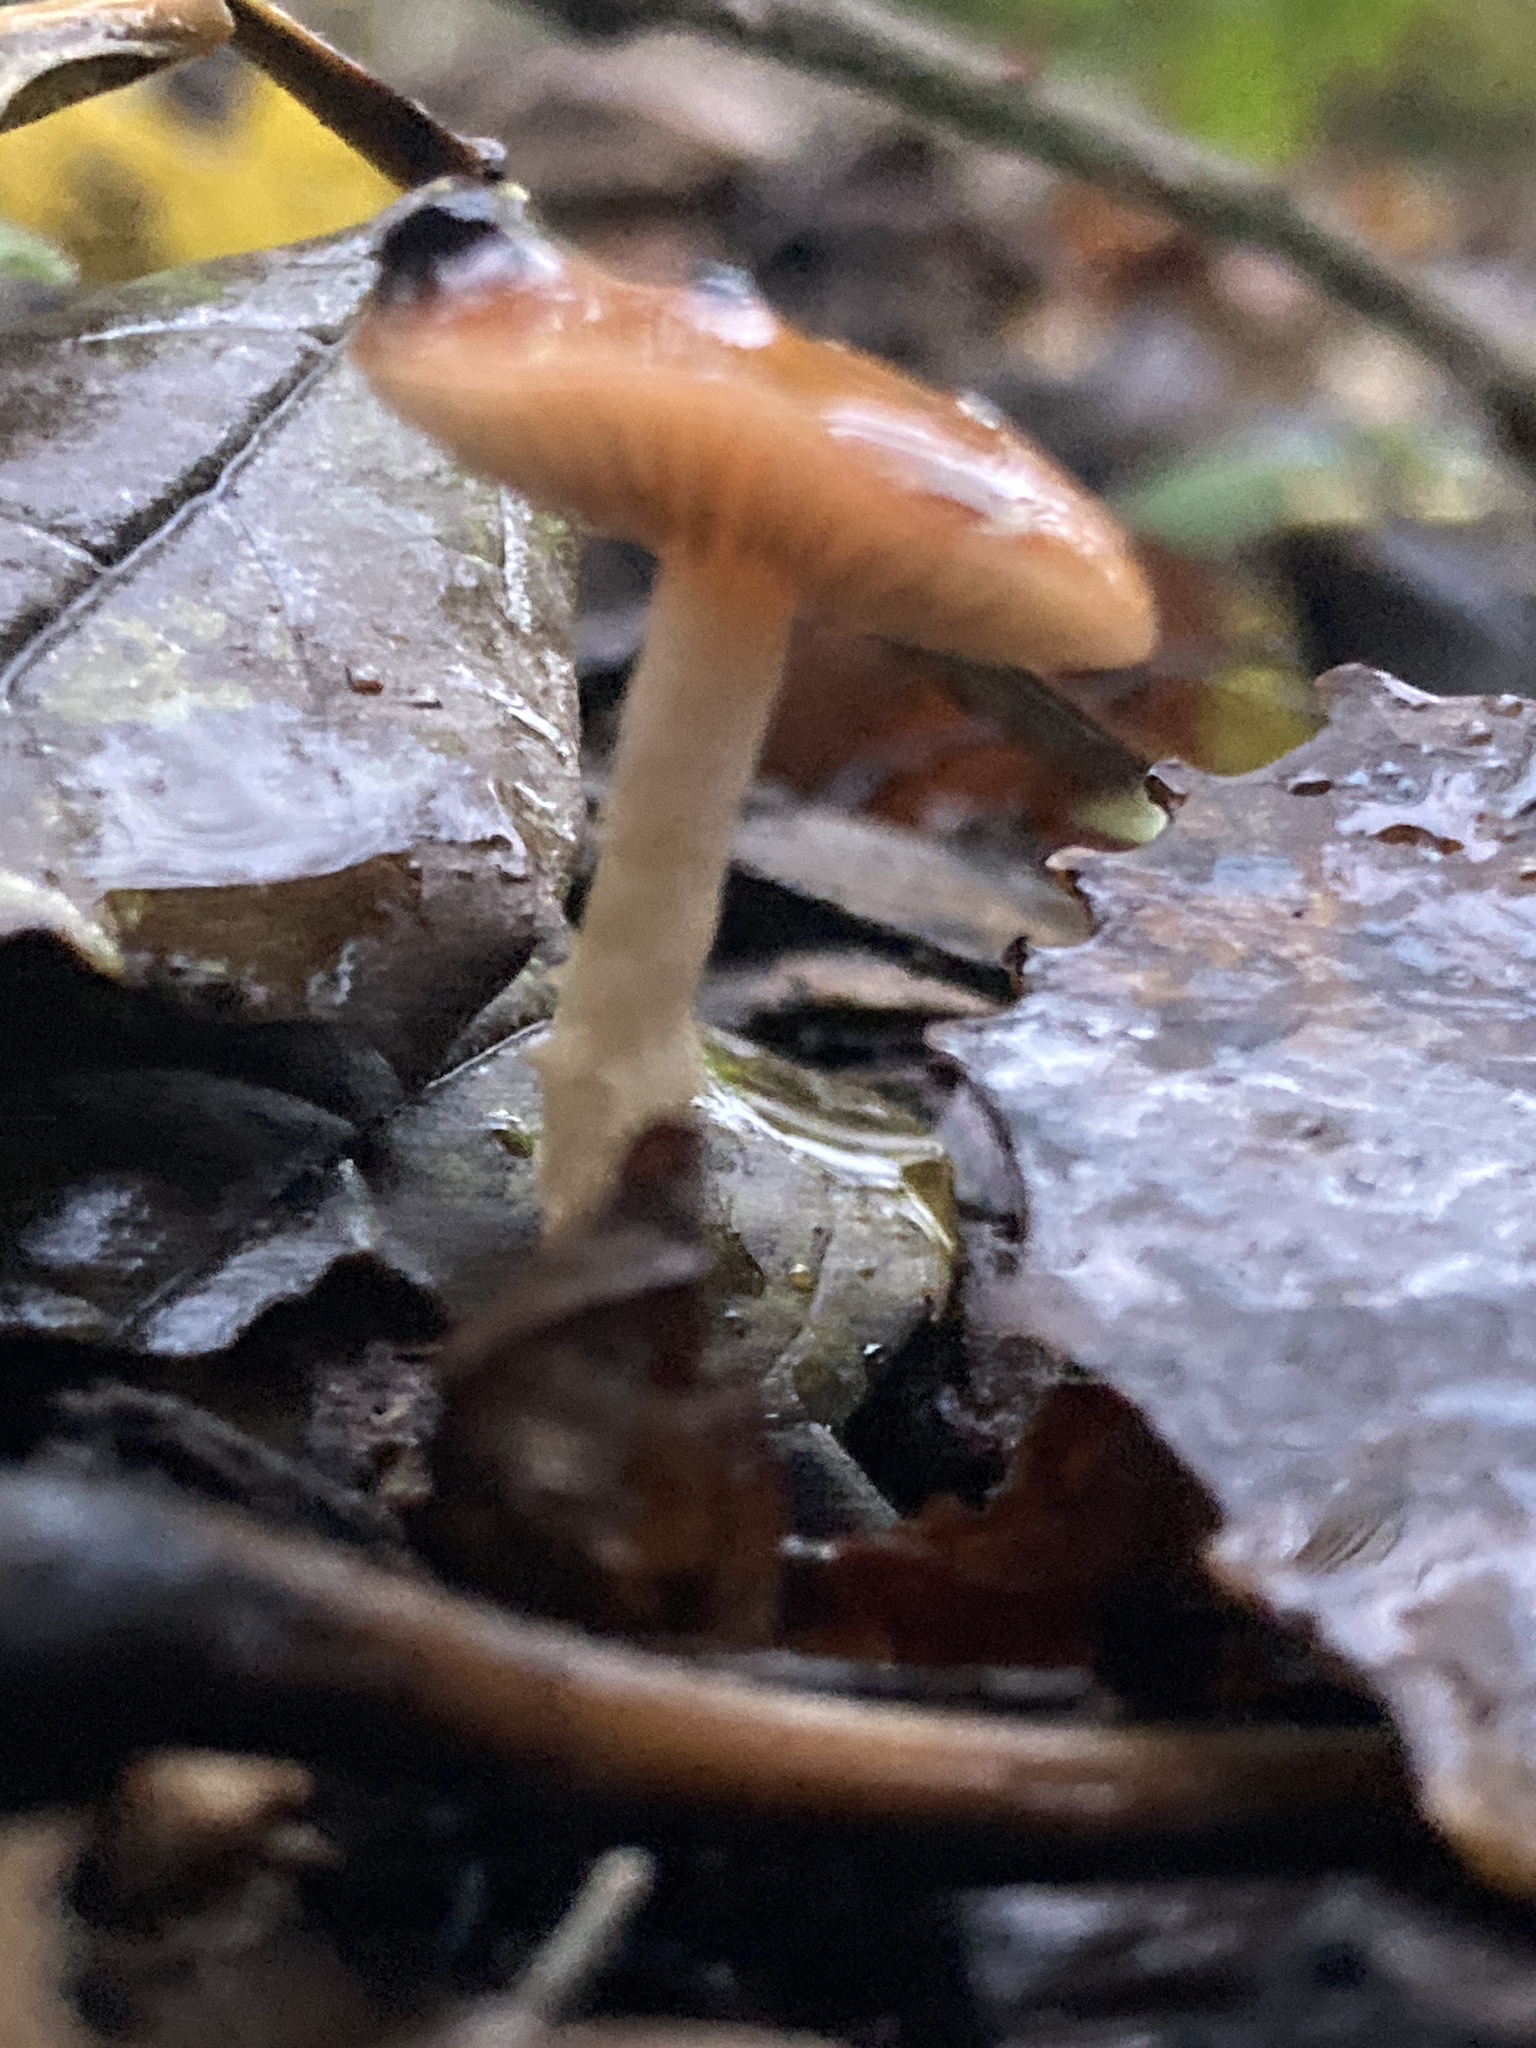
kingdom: Fungi
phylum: Basidiomycota
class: Agaricomycetes
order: Agaricales
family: Strophariaceae
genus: Leratiomyces
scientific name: Leratiomyces ceres
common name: Redlead roundhead
